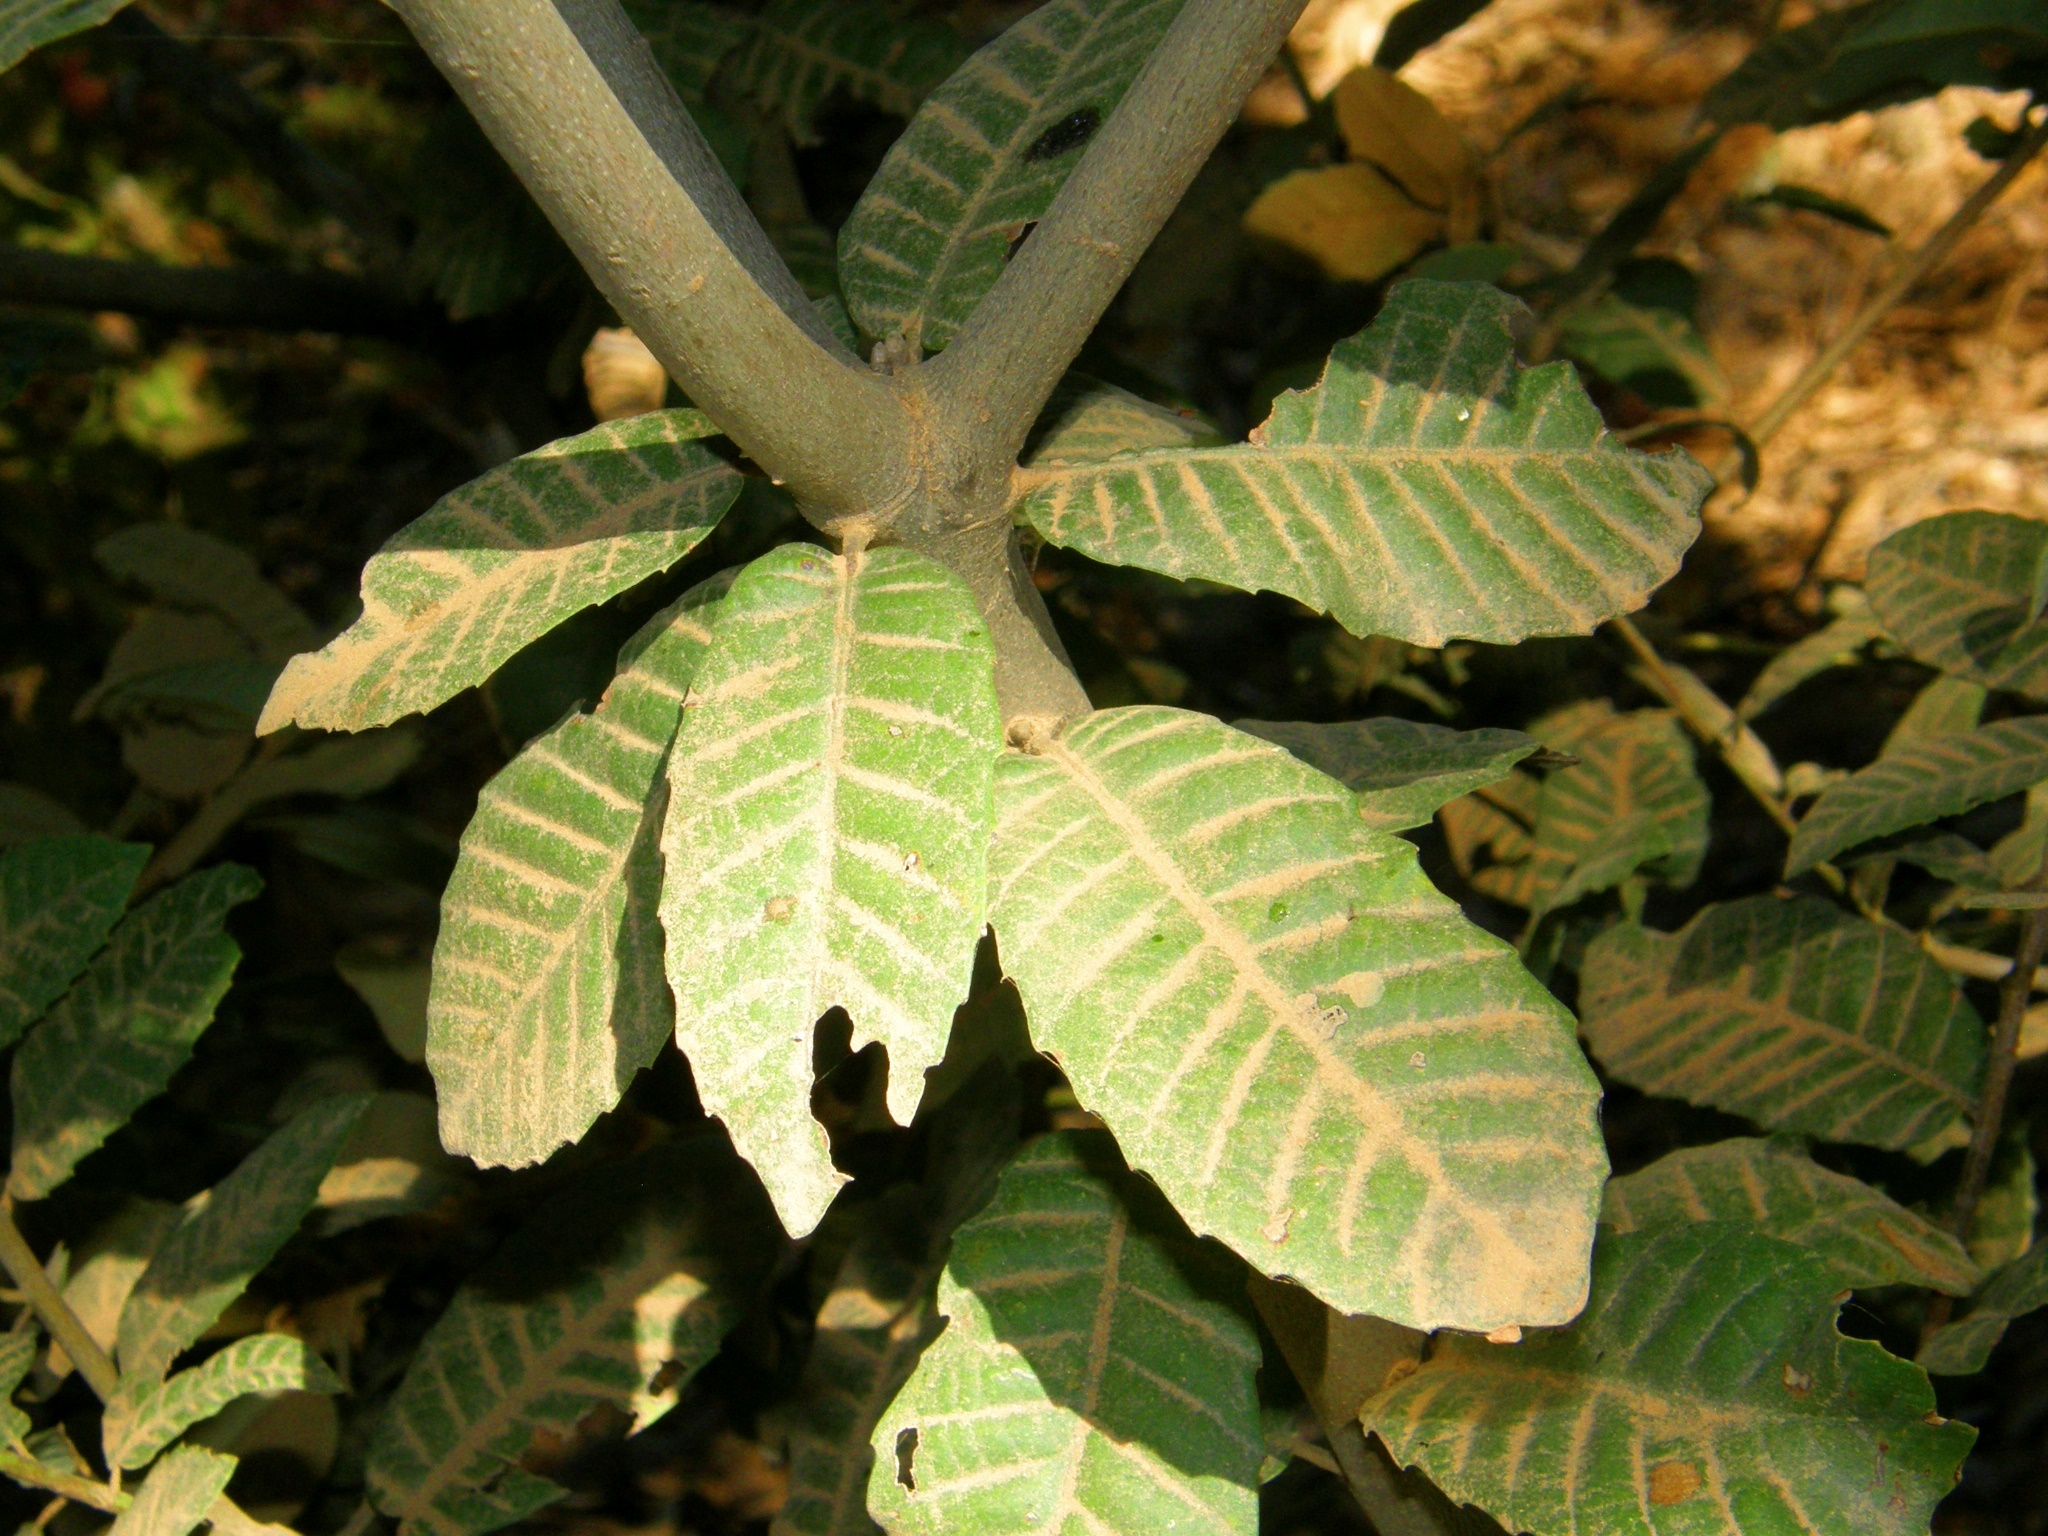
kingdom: Plantae
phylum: Tracheophyta
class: Magnoliopsida
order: Fagales
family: Fagaceae
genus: Notholithocarpus
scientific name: Notholithocarpus densiflorus
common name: Tan bark oak
